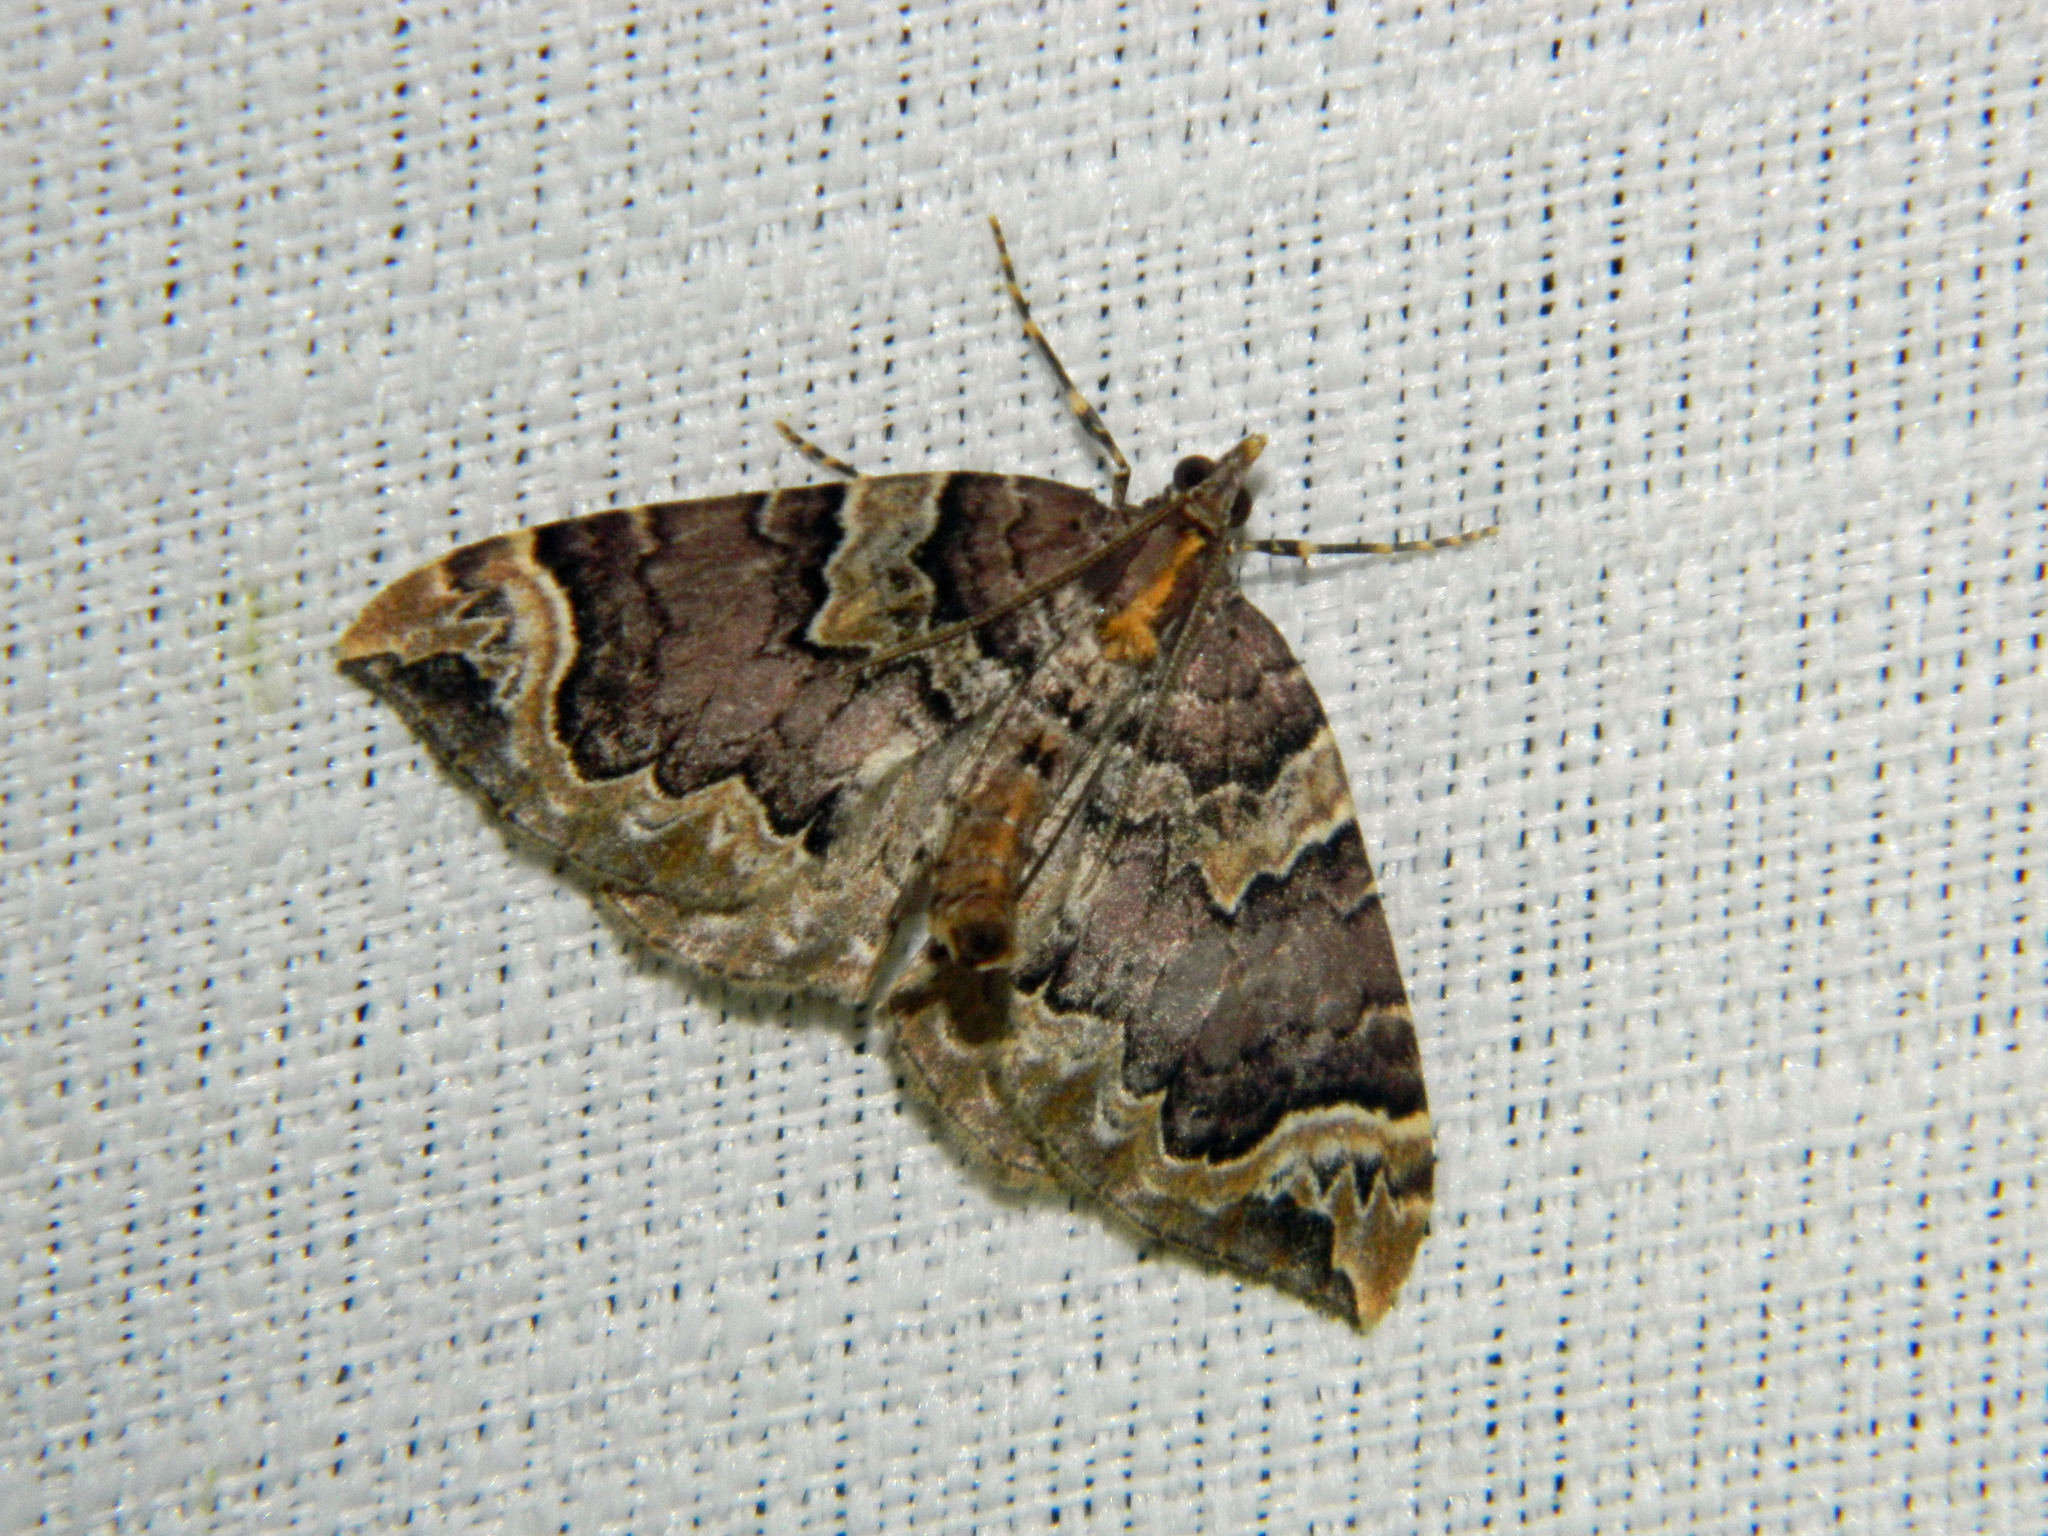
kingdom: Animalia
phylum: Arthropoda
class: Insecta
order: Lepidoptera
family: Geometridae
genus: Eulithis
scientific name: Eulithis serrataria
